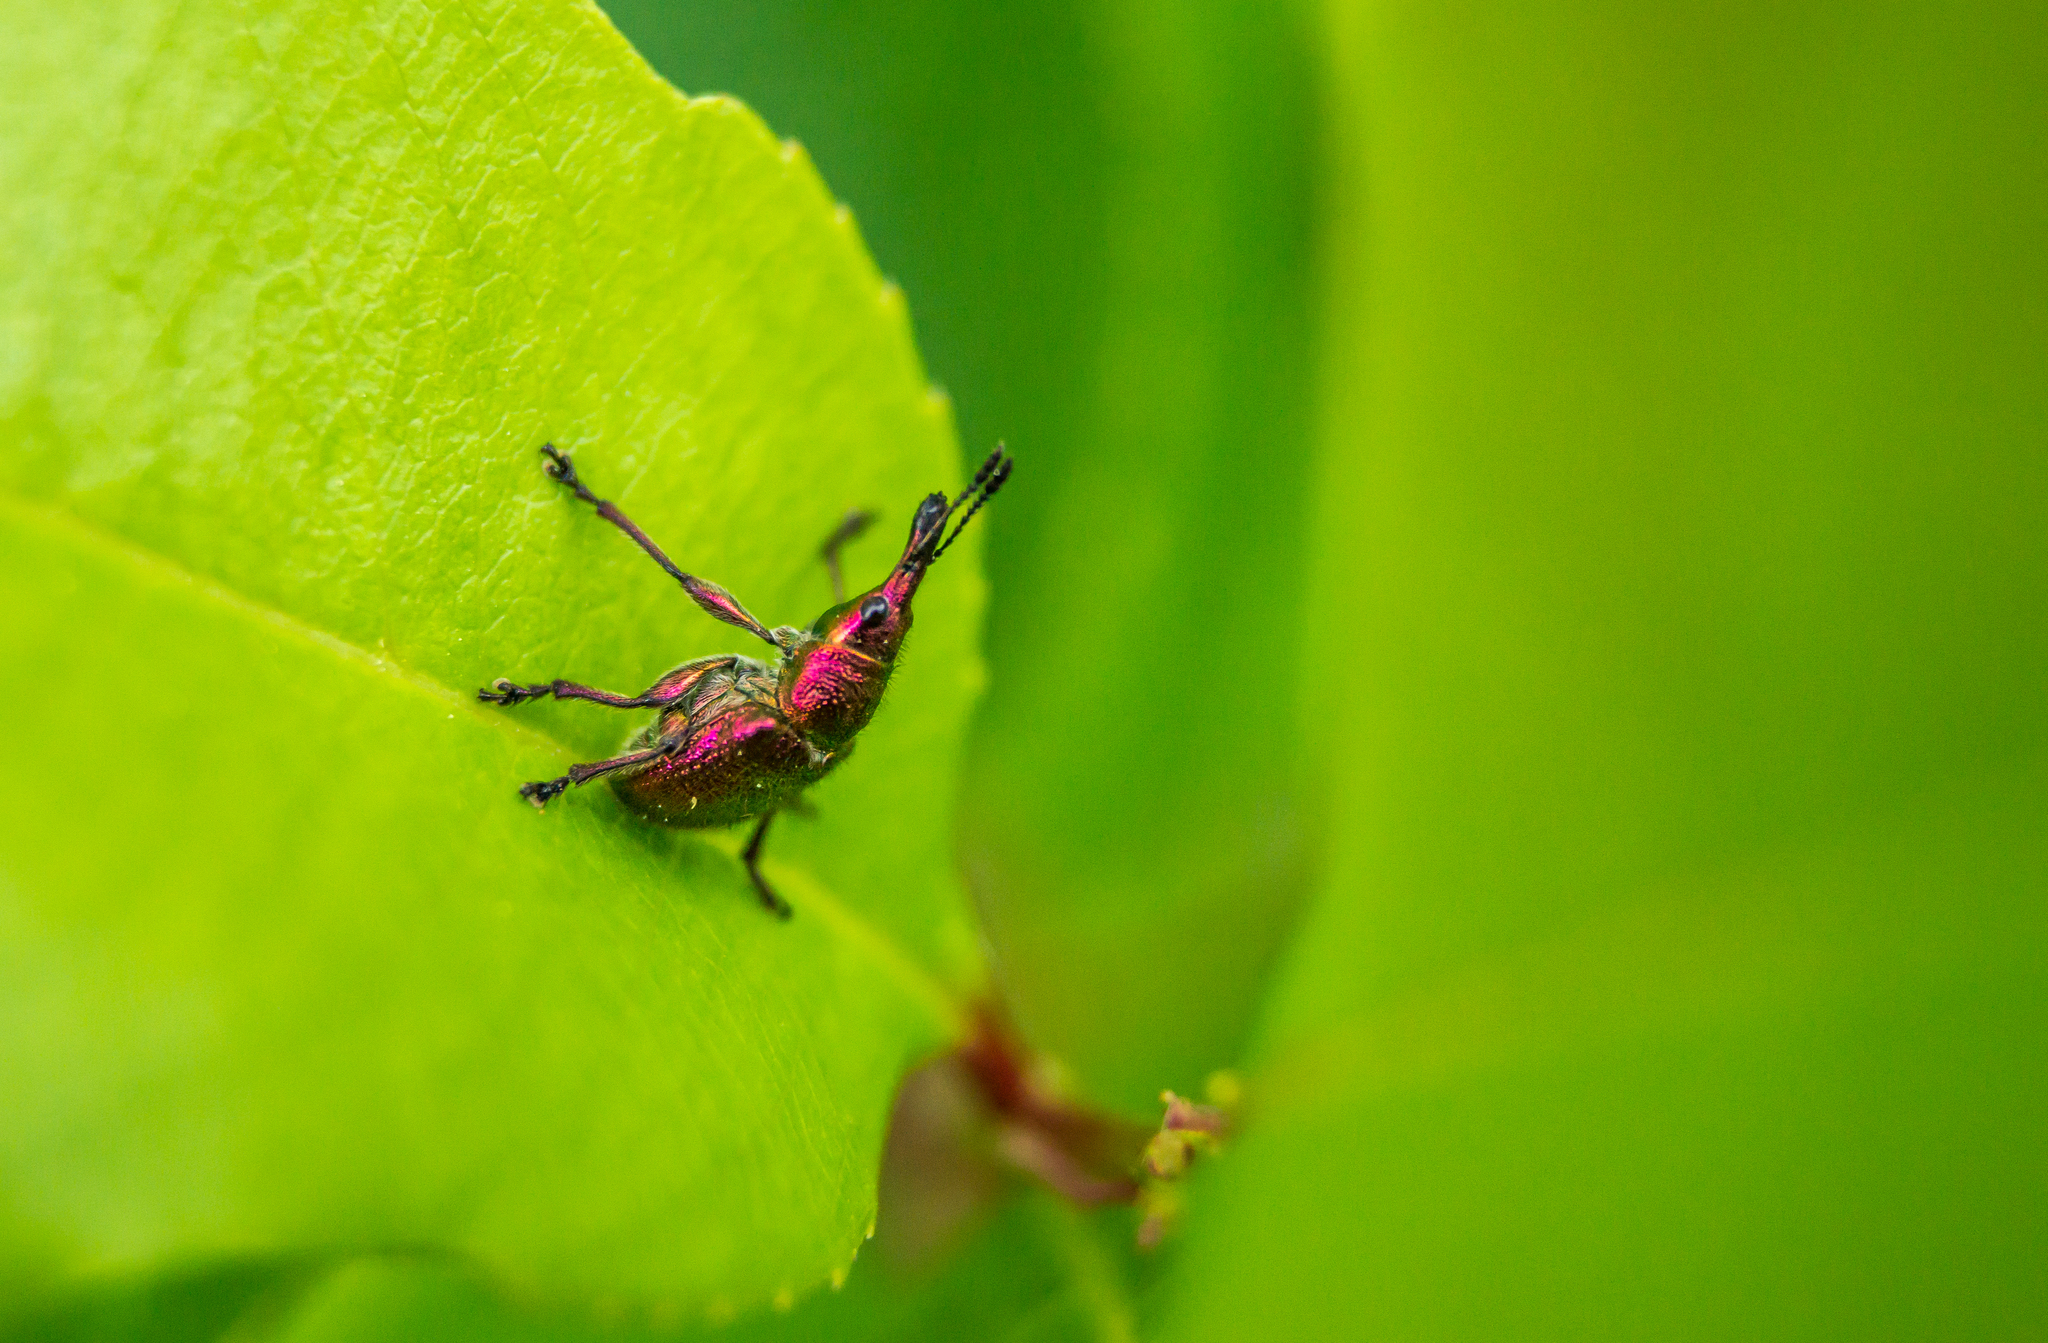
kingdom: Animalia
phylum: Arthropoda
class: Insecta
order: Coleoptera
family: Attelabidae
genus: Rhynchites
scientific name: Rhynchites auratus
